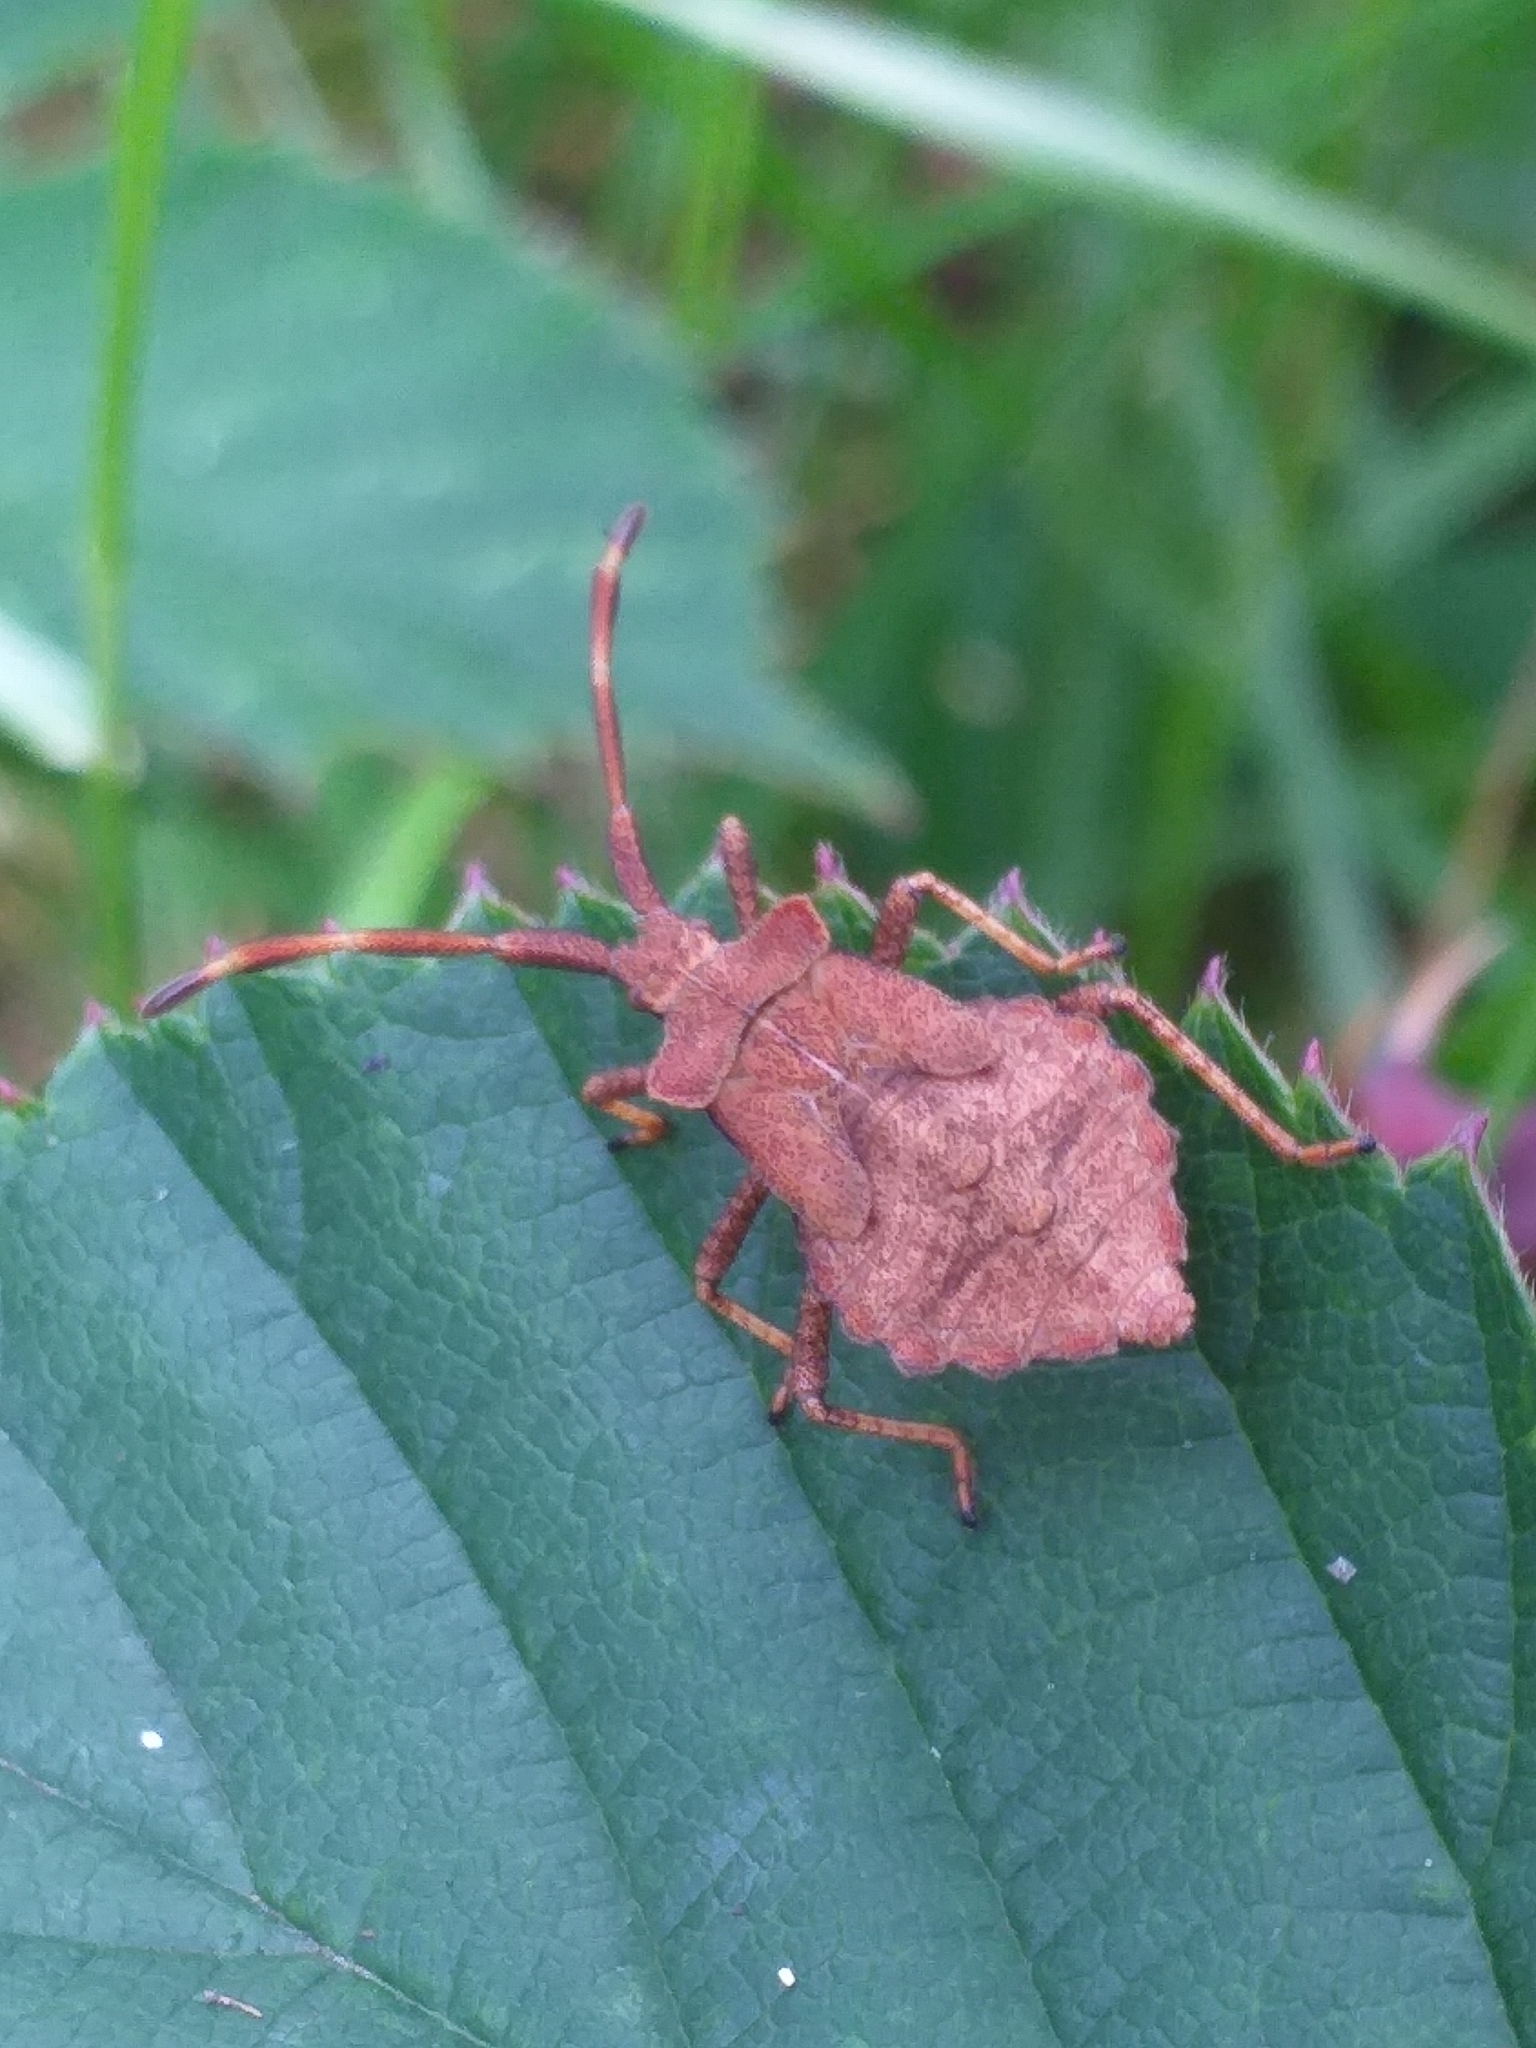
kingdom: Animalia
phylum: Arthropoda
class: Insecta
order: Hemiptera
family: Coreidae
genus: Coreus
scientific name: Coreus marginatus
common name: Dock bug
